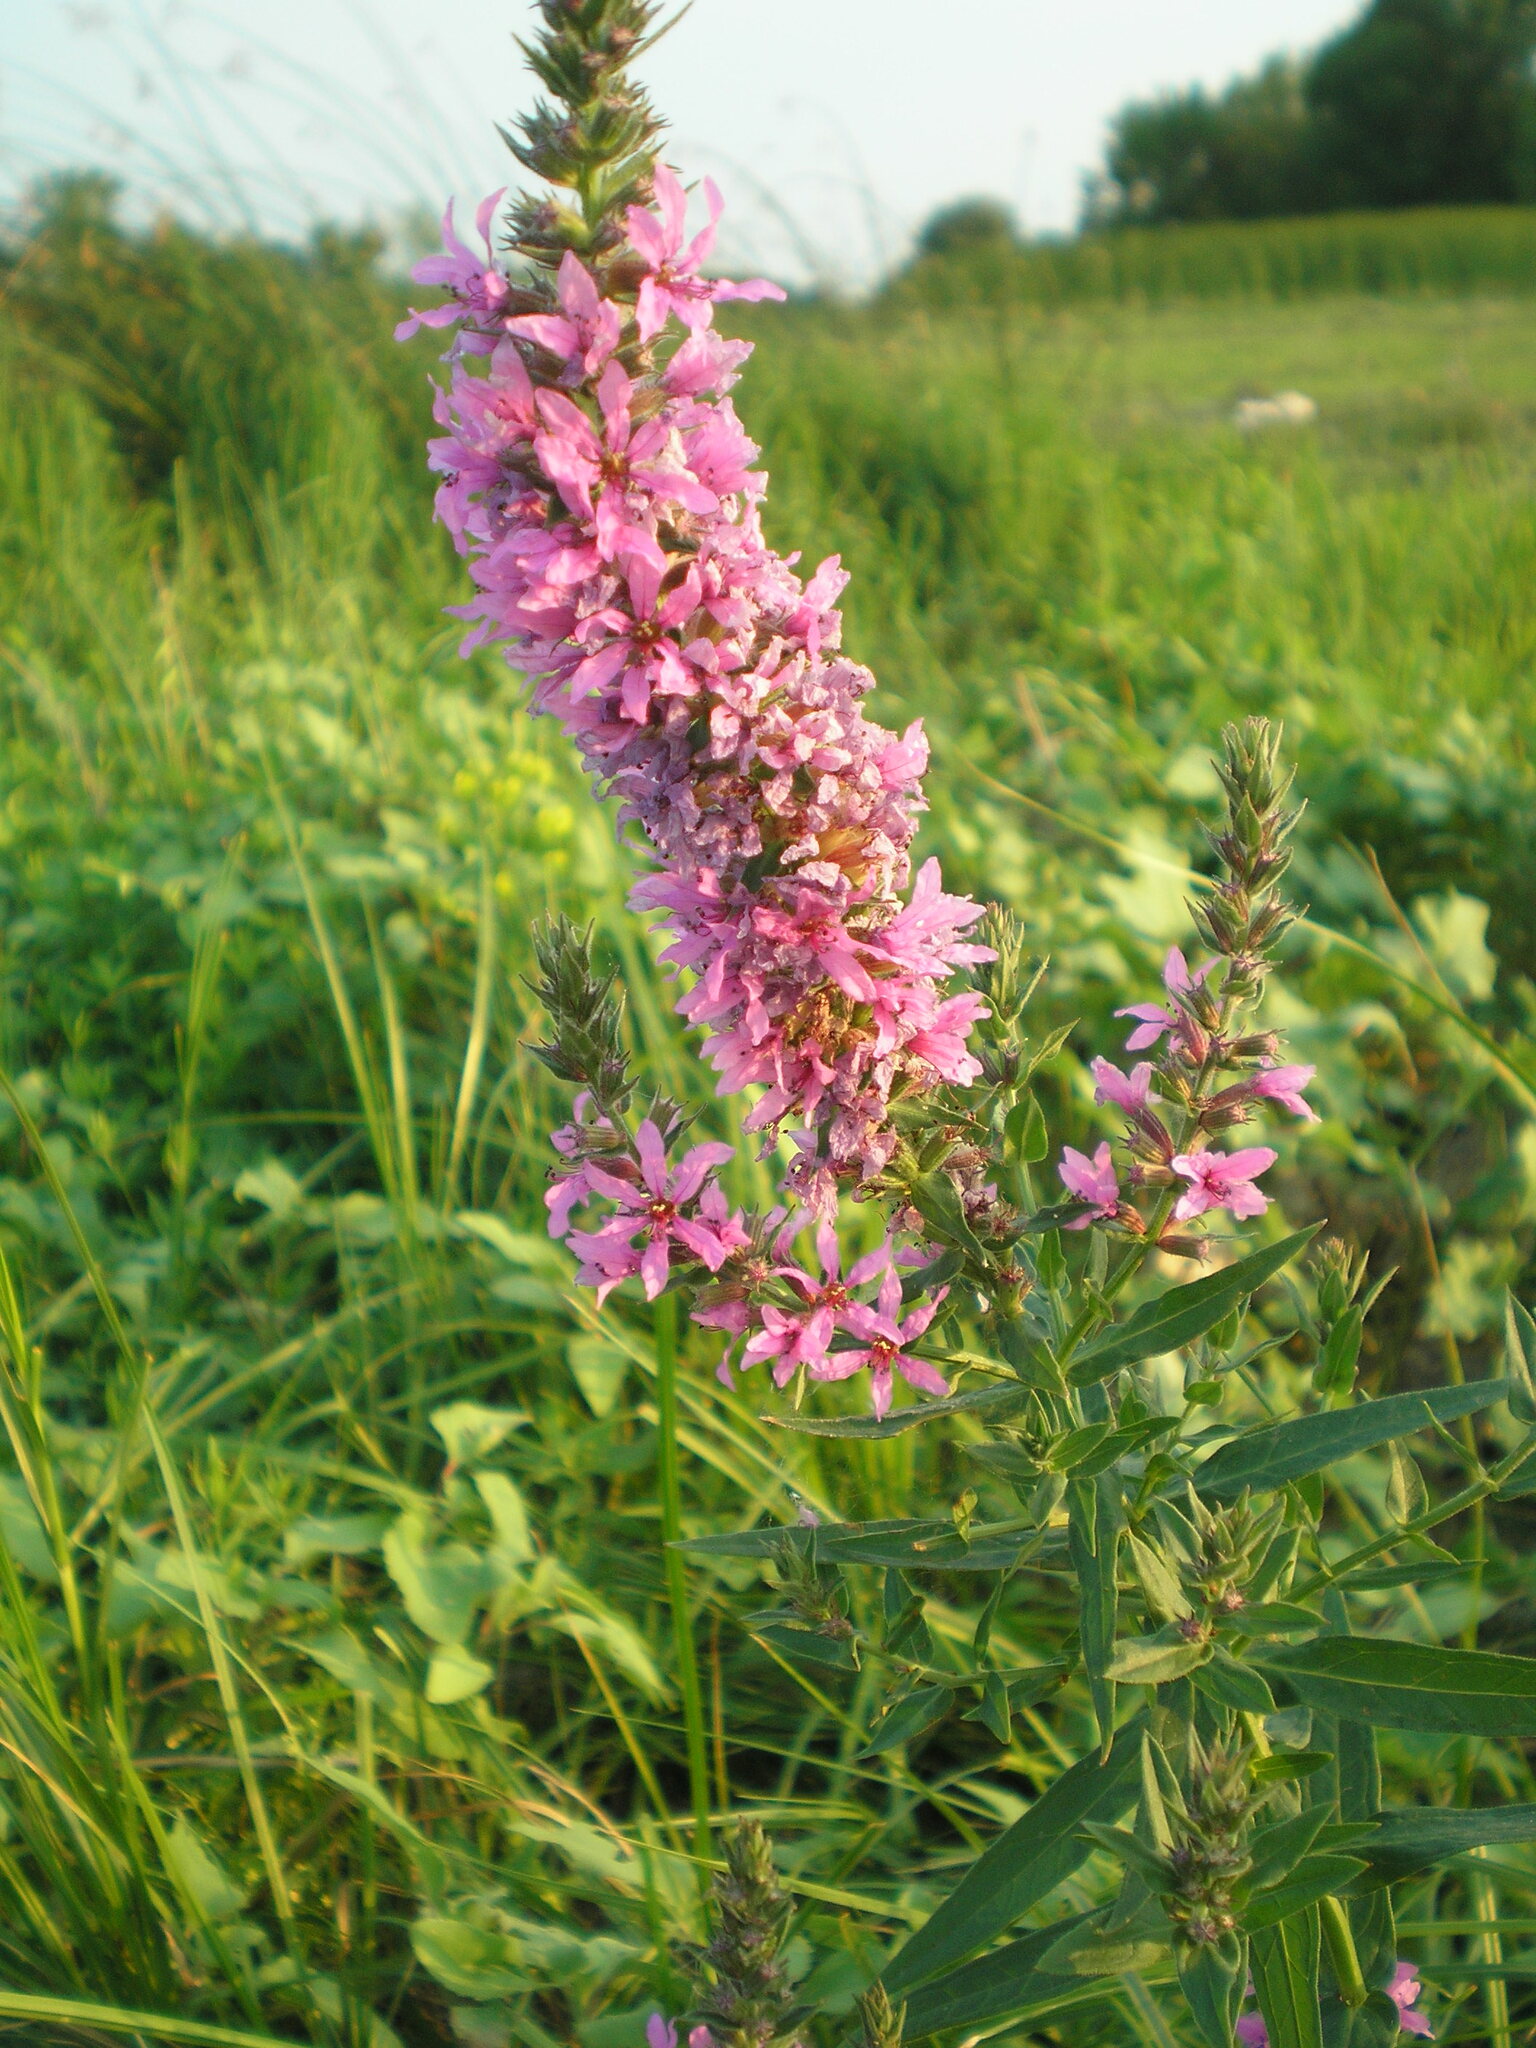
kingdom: Plantae
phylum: Tracheophyta
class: Magnoliopsida
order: Myrtales
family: Lythraceae
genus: Lythrum
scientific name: Lythrum salicaria
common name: Purple loosestrife
